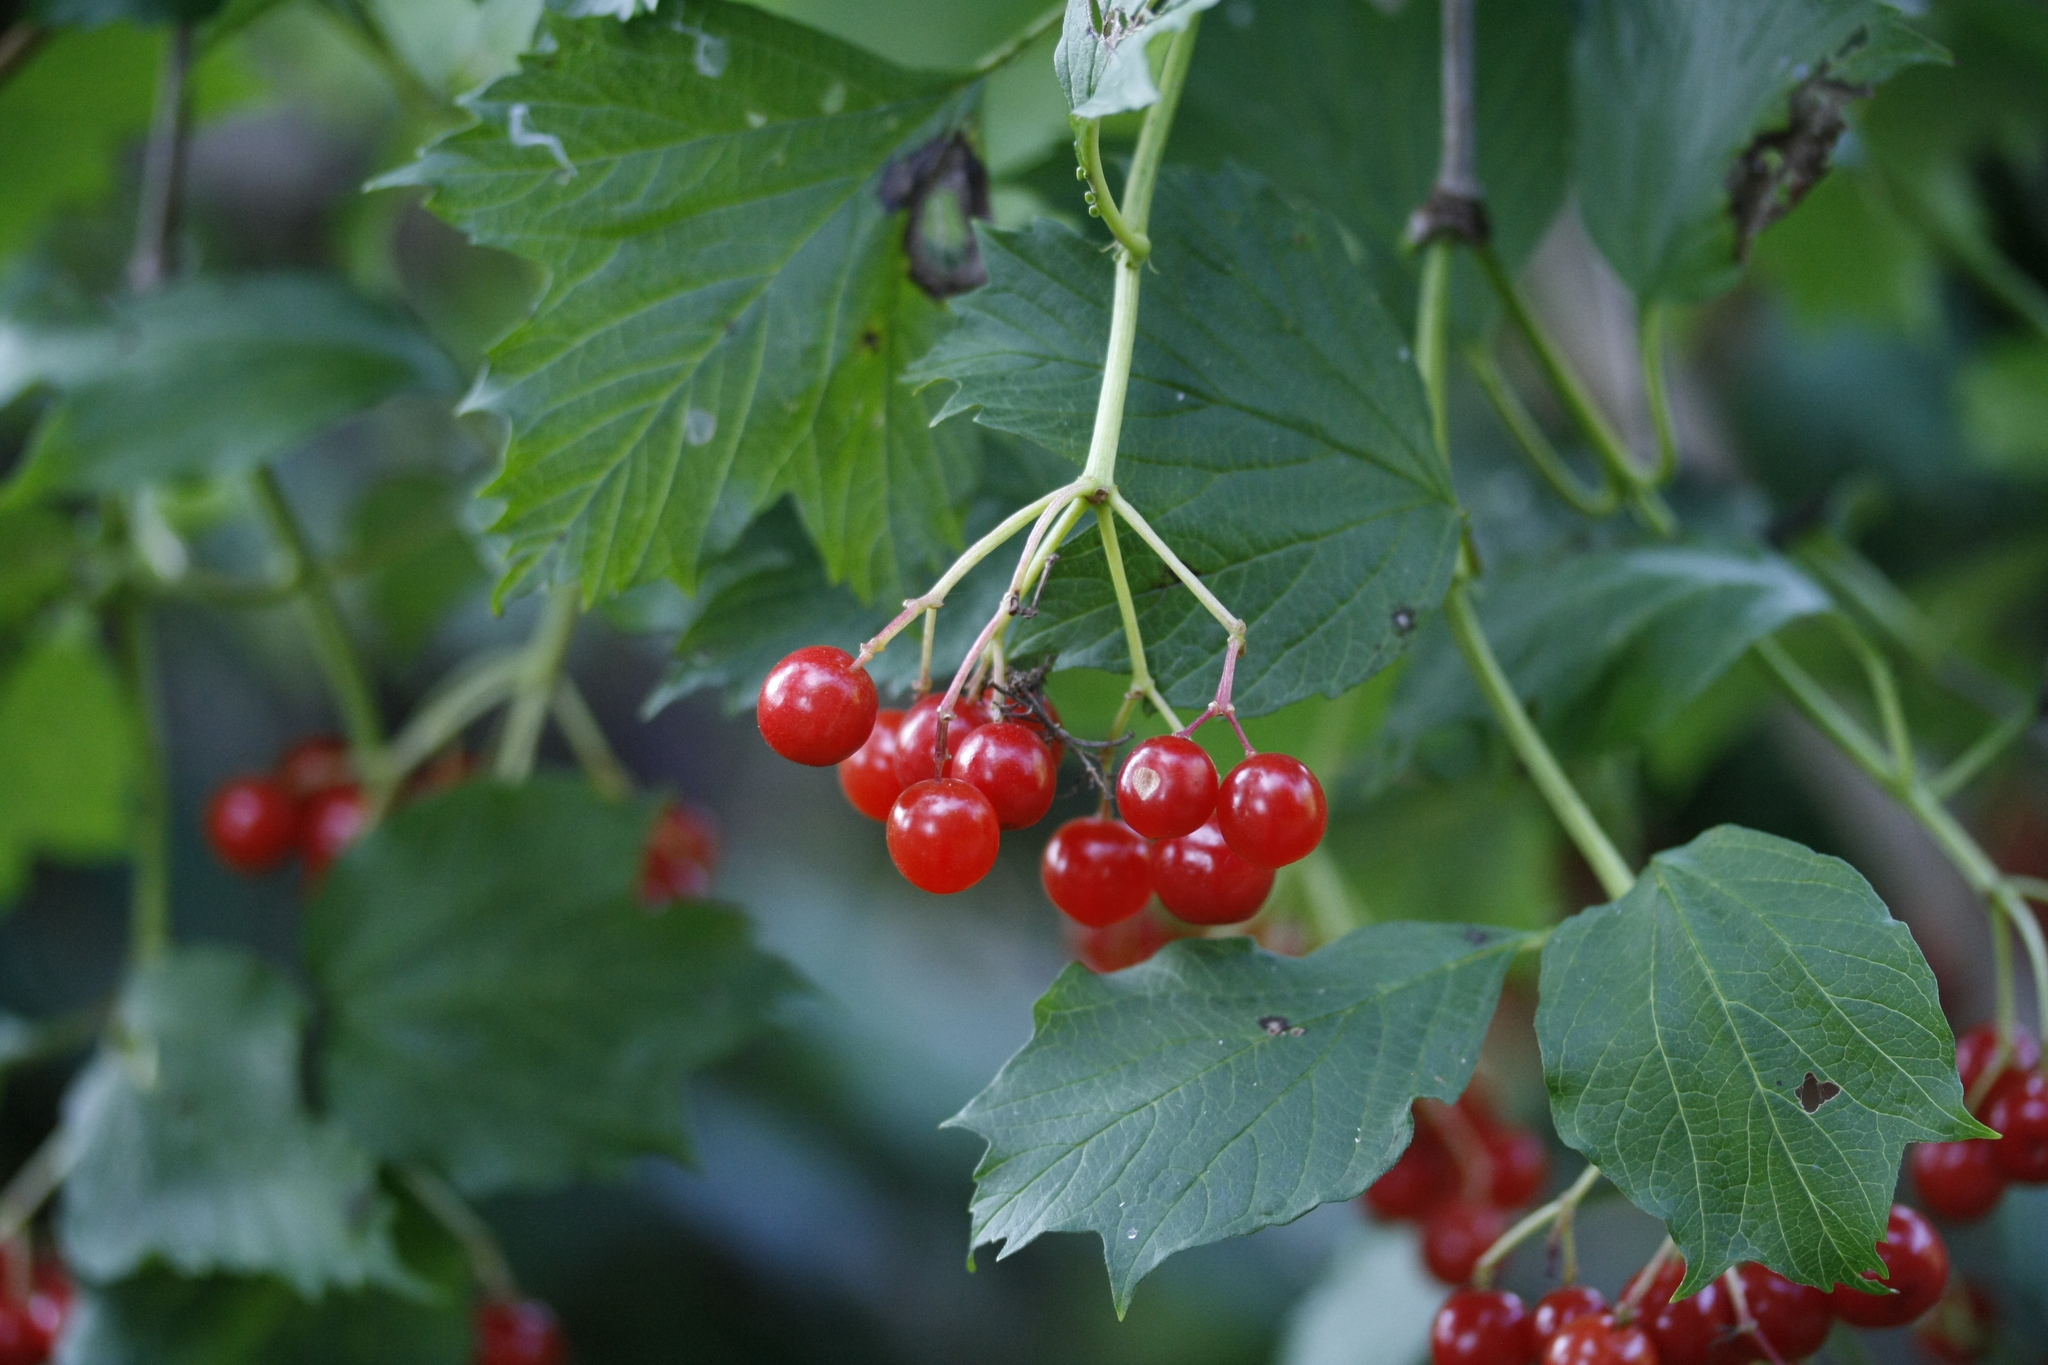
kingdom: Plantae
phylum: Tracheophyta
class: Magnoliopsida
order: Dipsacales
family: Viburnaceae
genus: Viburnum
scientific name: Viburnum opulus
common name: Guelder-rose
